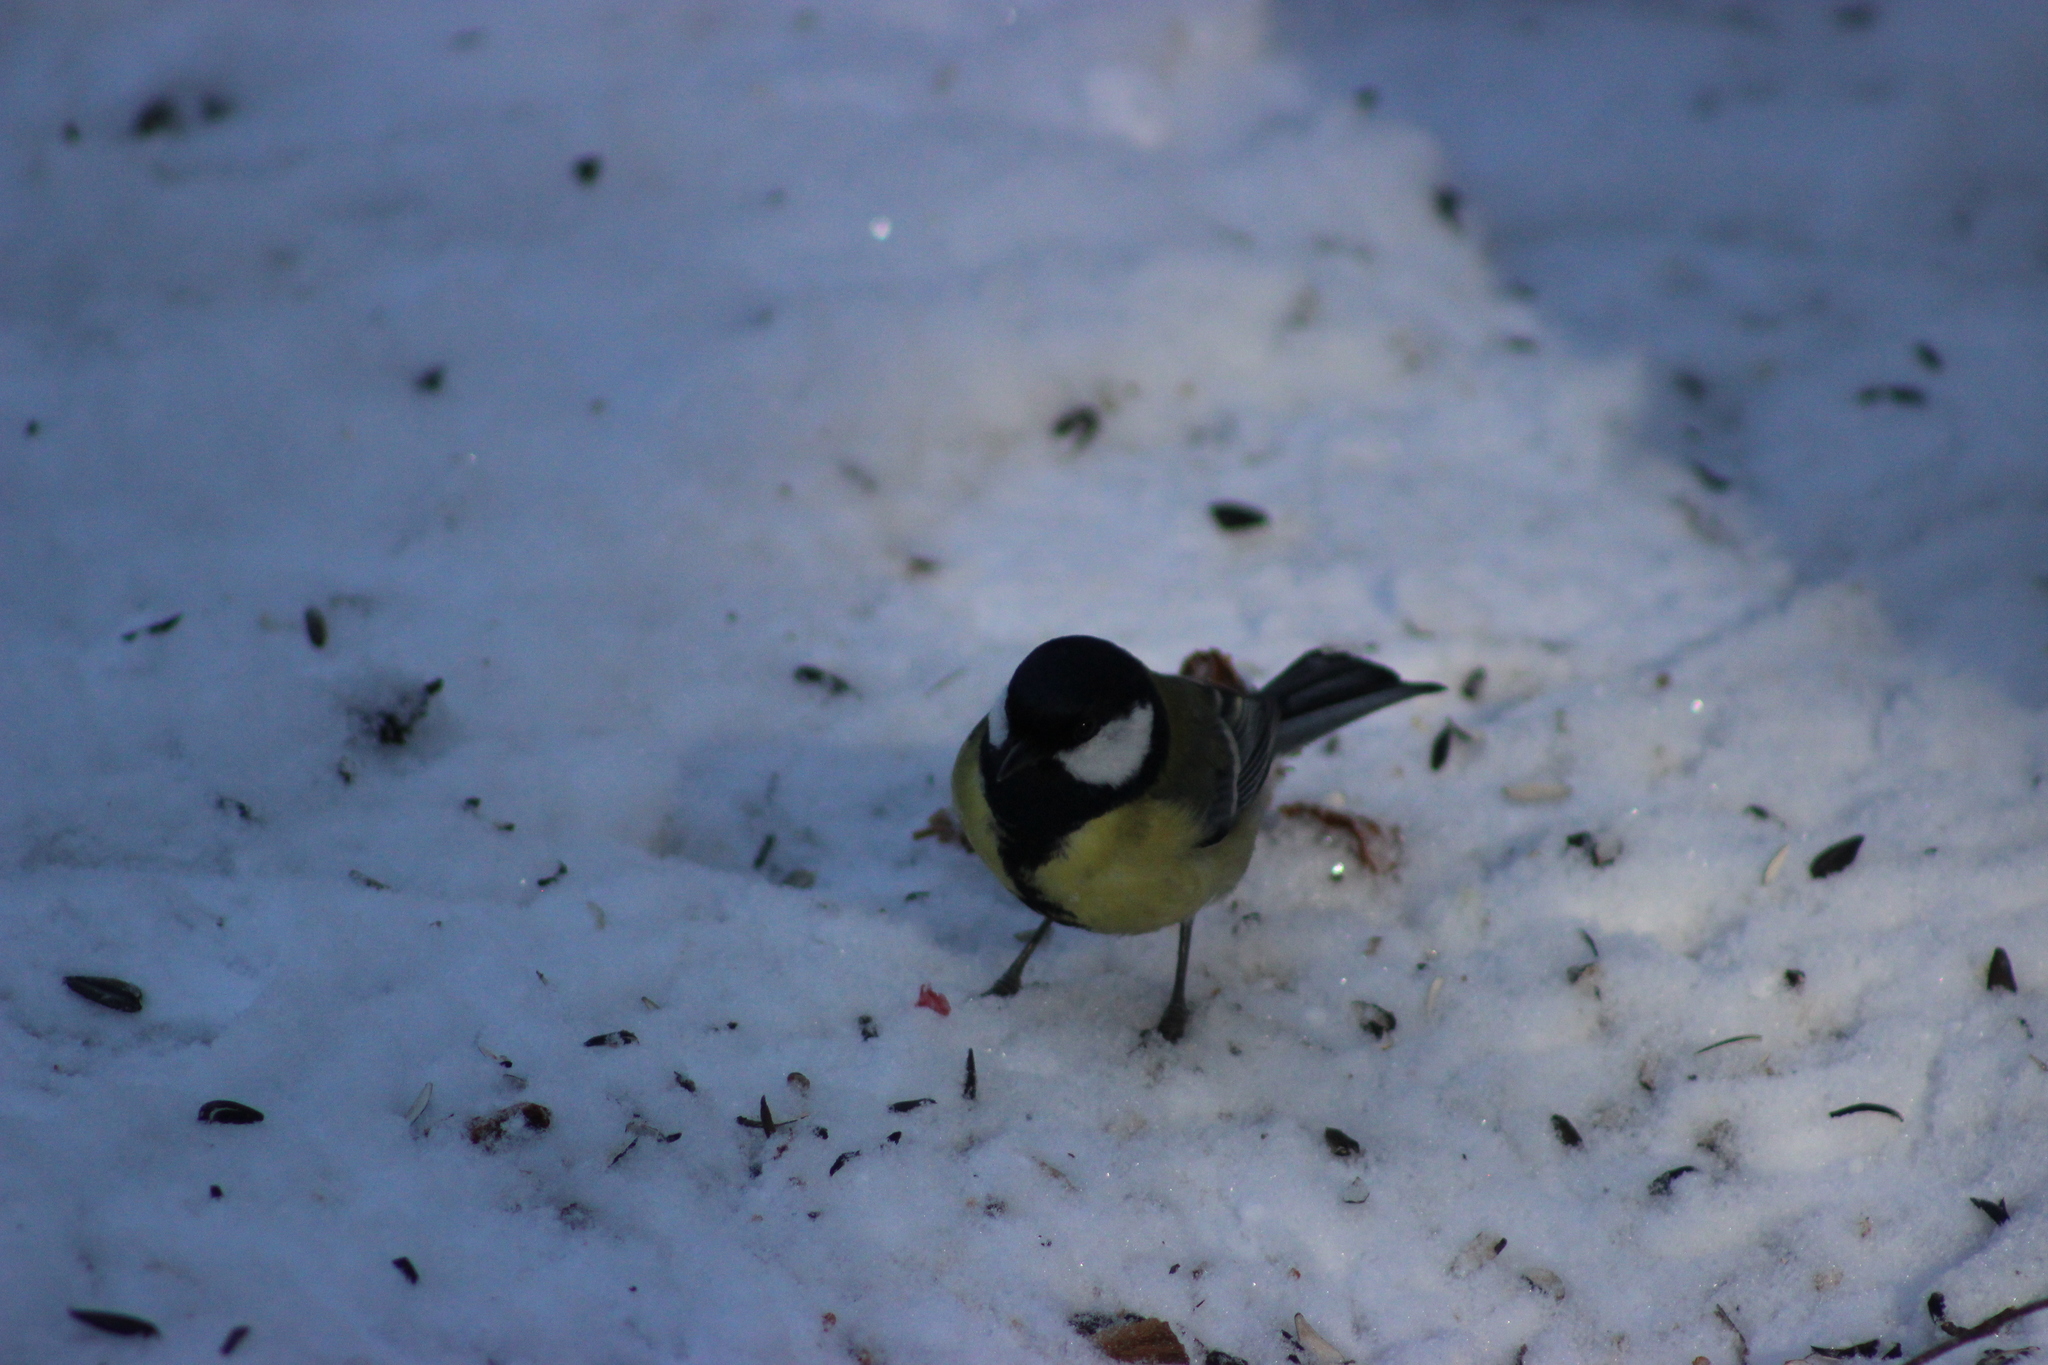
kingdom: Animalia
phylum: Chordata
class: Aves
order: Passeriformes
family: Paridae
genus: Parus
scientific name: Parus major
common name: Great tit
